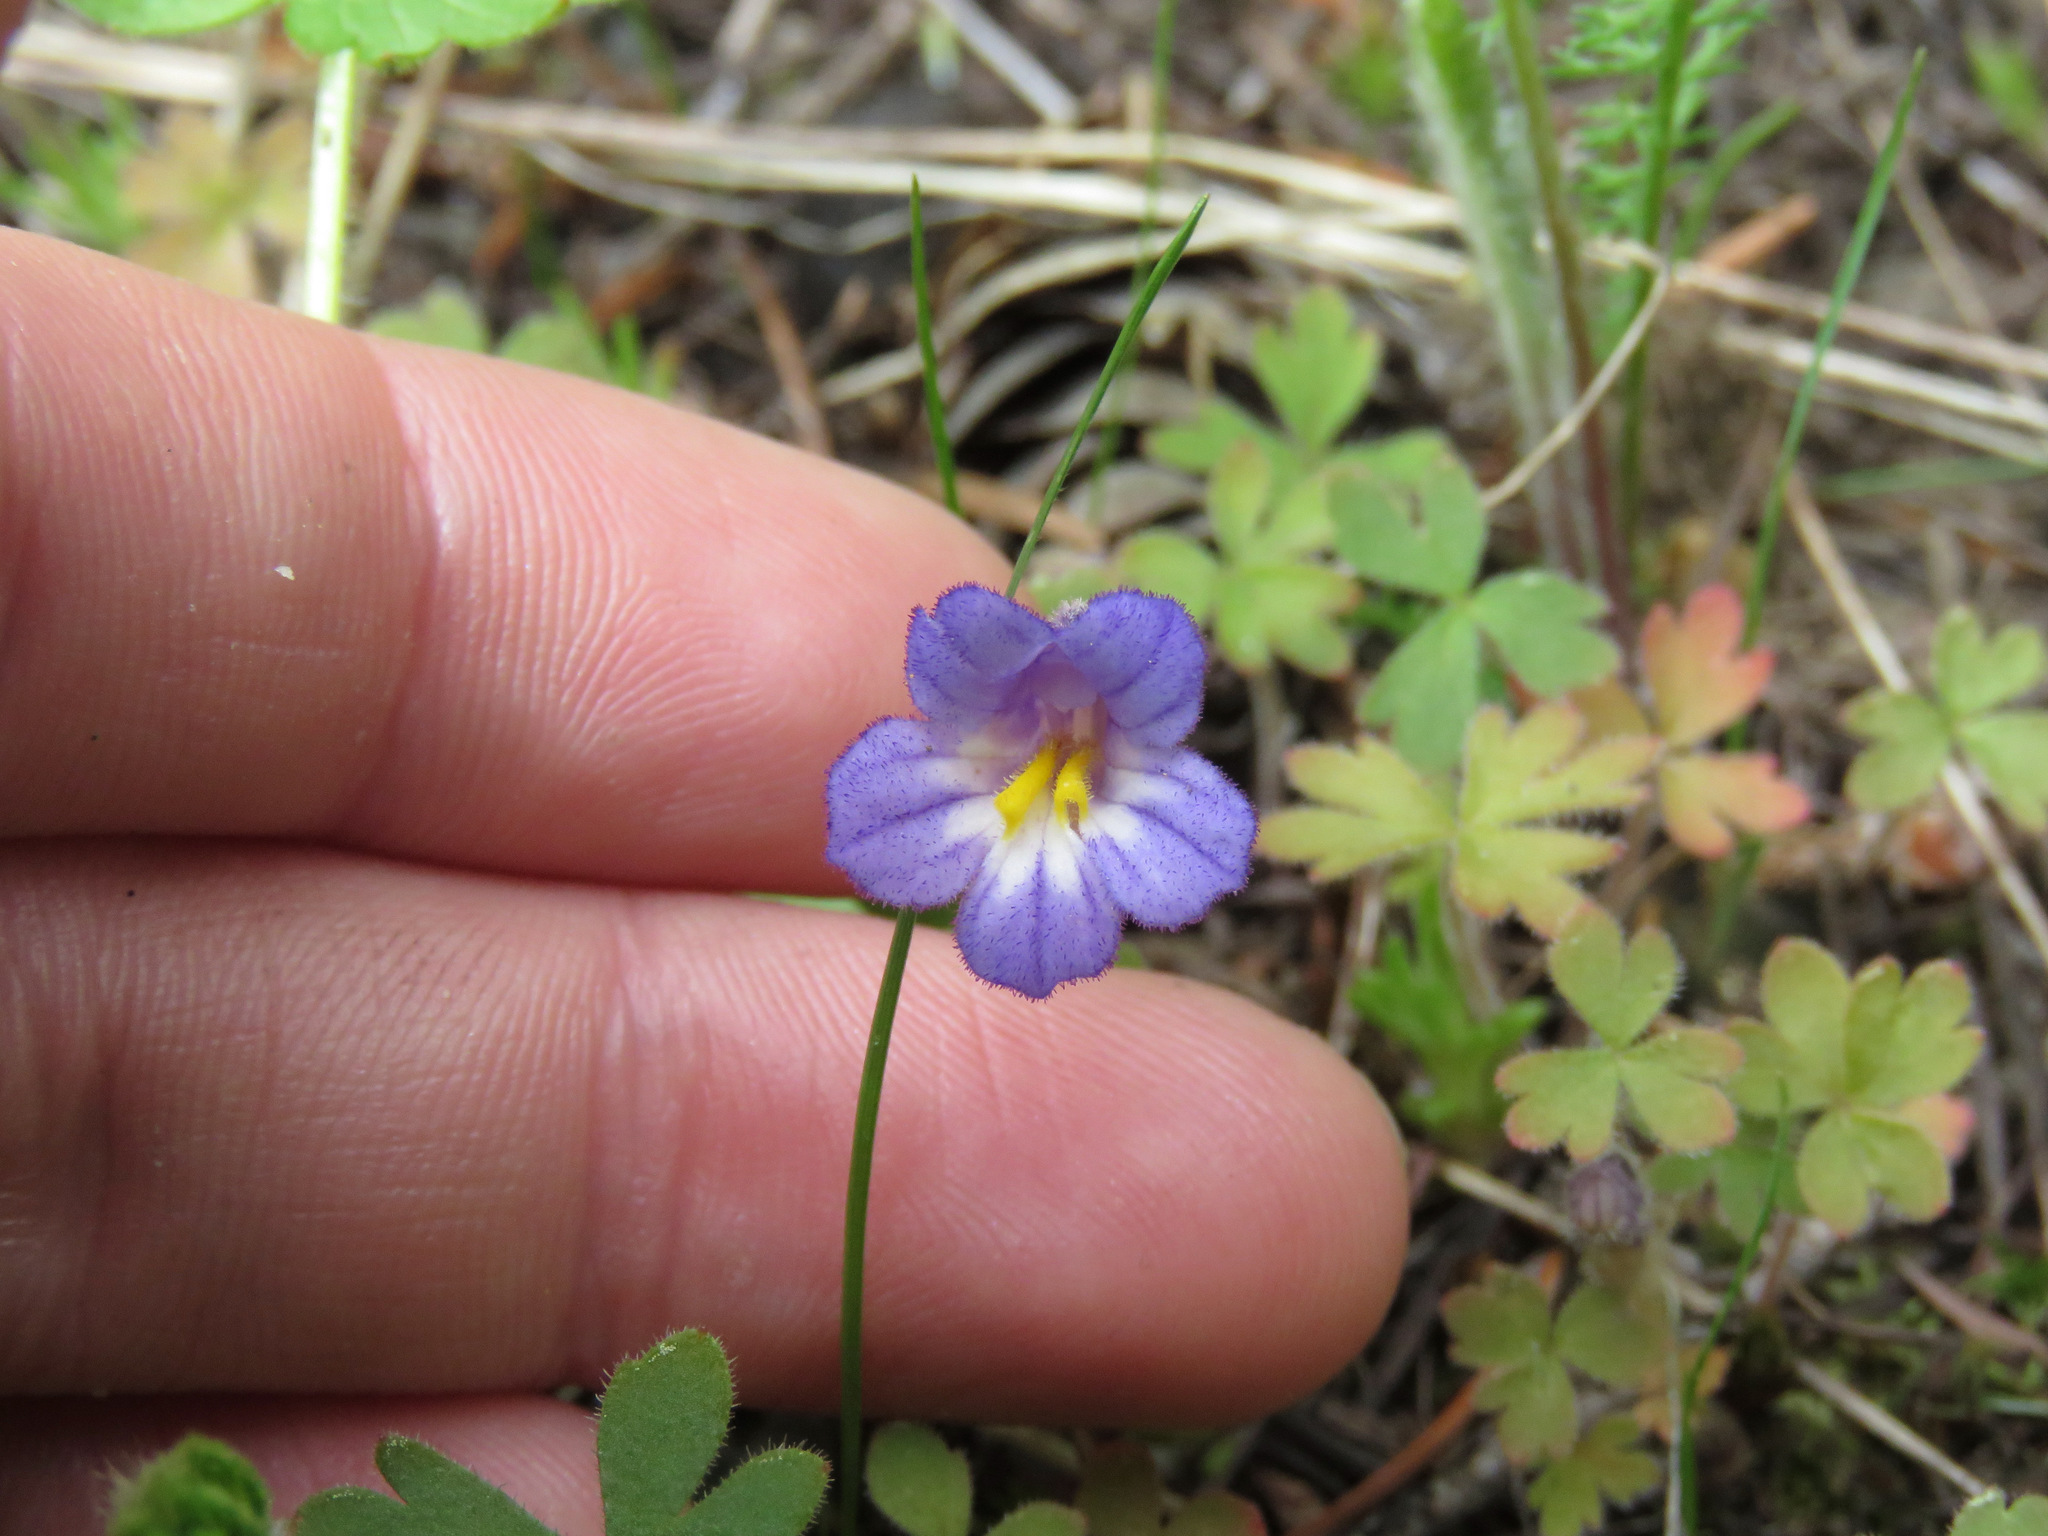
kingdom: Plantae
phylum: Tracheophyta
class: Magnoliopsida
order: Lamiales
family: Orobanchaceae
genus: Aphyllon
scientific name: Aphyllon uniflorum
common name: One-flowered broomrape
